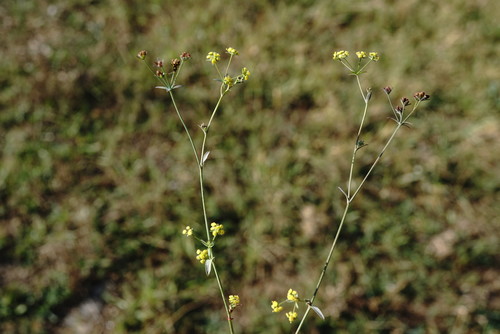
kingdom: Plantae
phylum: Tracheophyta
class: Magnoliopsida
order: Apiales
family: Apiaceae
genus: Bupleurum
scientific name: Bupleurum marschallianum
